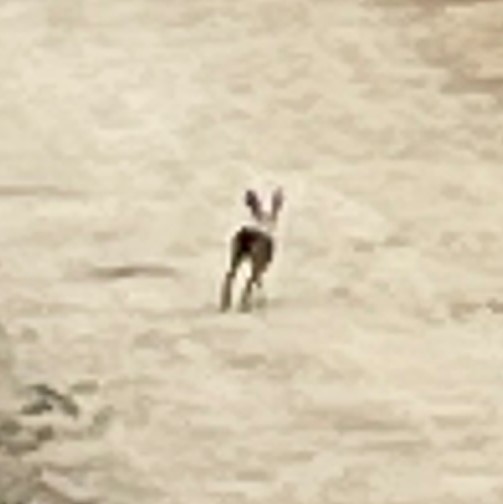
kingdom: Animalia
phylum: Chordata
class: Mammalia
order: Lagomorpha
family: Leporidae
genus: Lepus
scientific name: Lepus californicus
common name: Black-tailed jackrabbit
